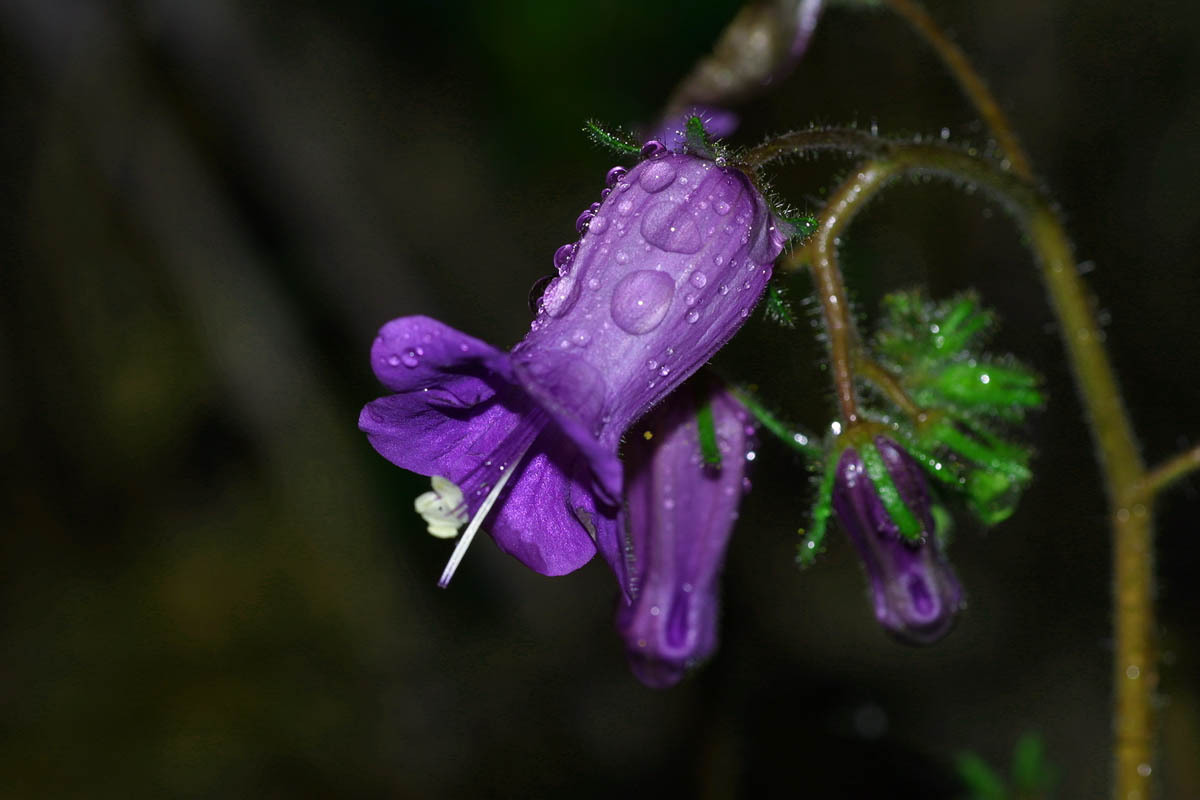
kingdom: Plantae
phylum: Tracheophyta
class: Magnoliopsida
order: Boraginales
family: Hydrophyllaceae
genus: Phacelia
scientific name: Phacelia minor
